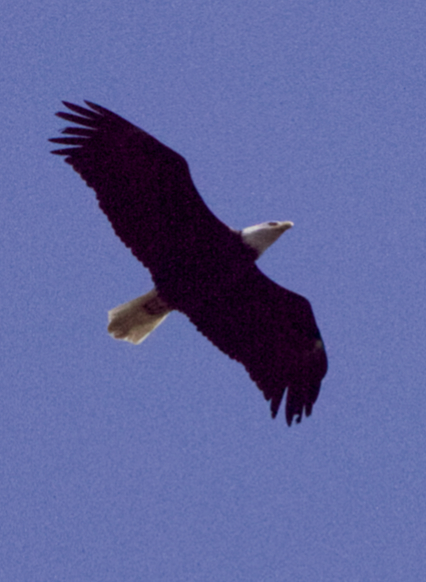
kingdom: Animalia
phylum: Chordata
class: Aves
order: Accipitriformes
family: Accipitridae
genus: Haliaeetus
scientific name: Haliaeetus leucocephalus
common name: Bald eagle
